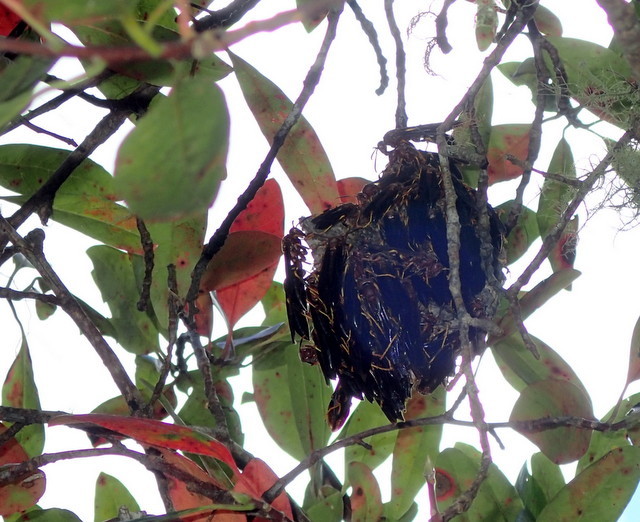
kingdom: Animalia
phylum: Arthropoda
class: Insecta
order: Hymenoptera
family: Eumenidae
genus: Polistes
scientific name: Polistes annularis
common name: Ringed paper wasp
